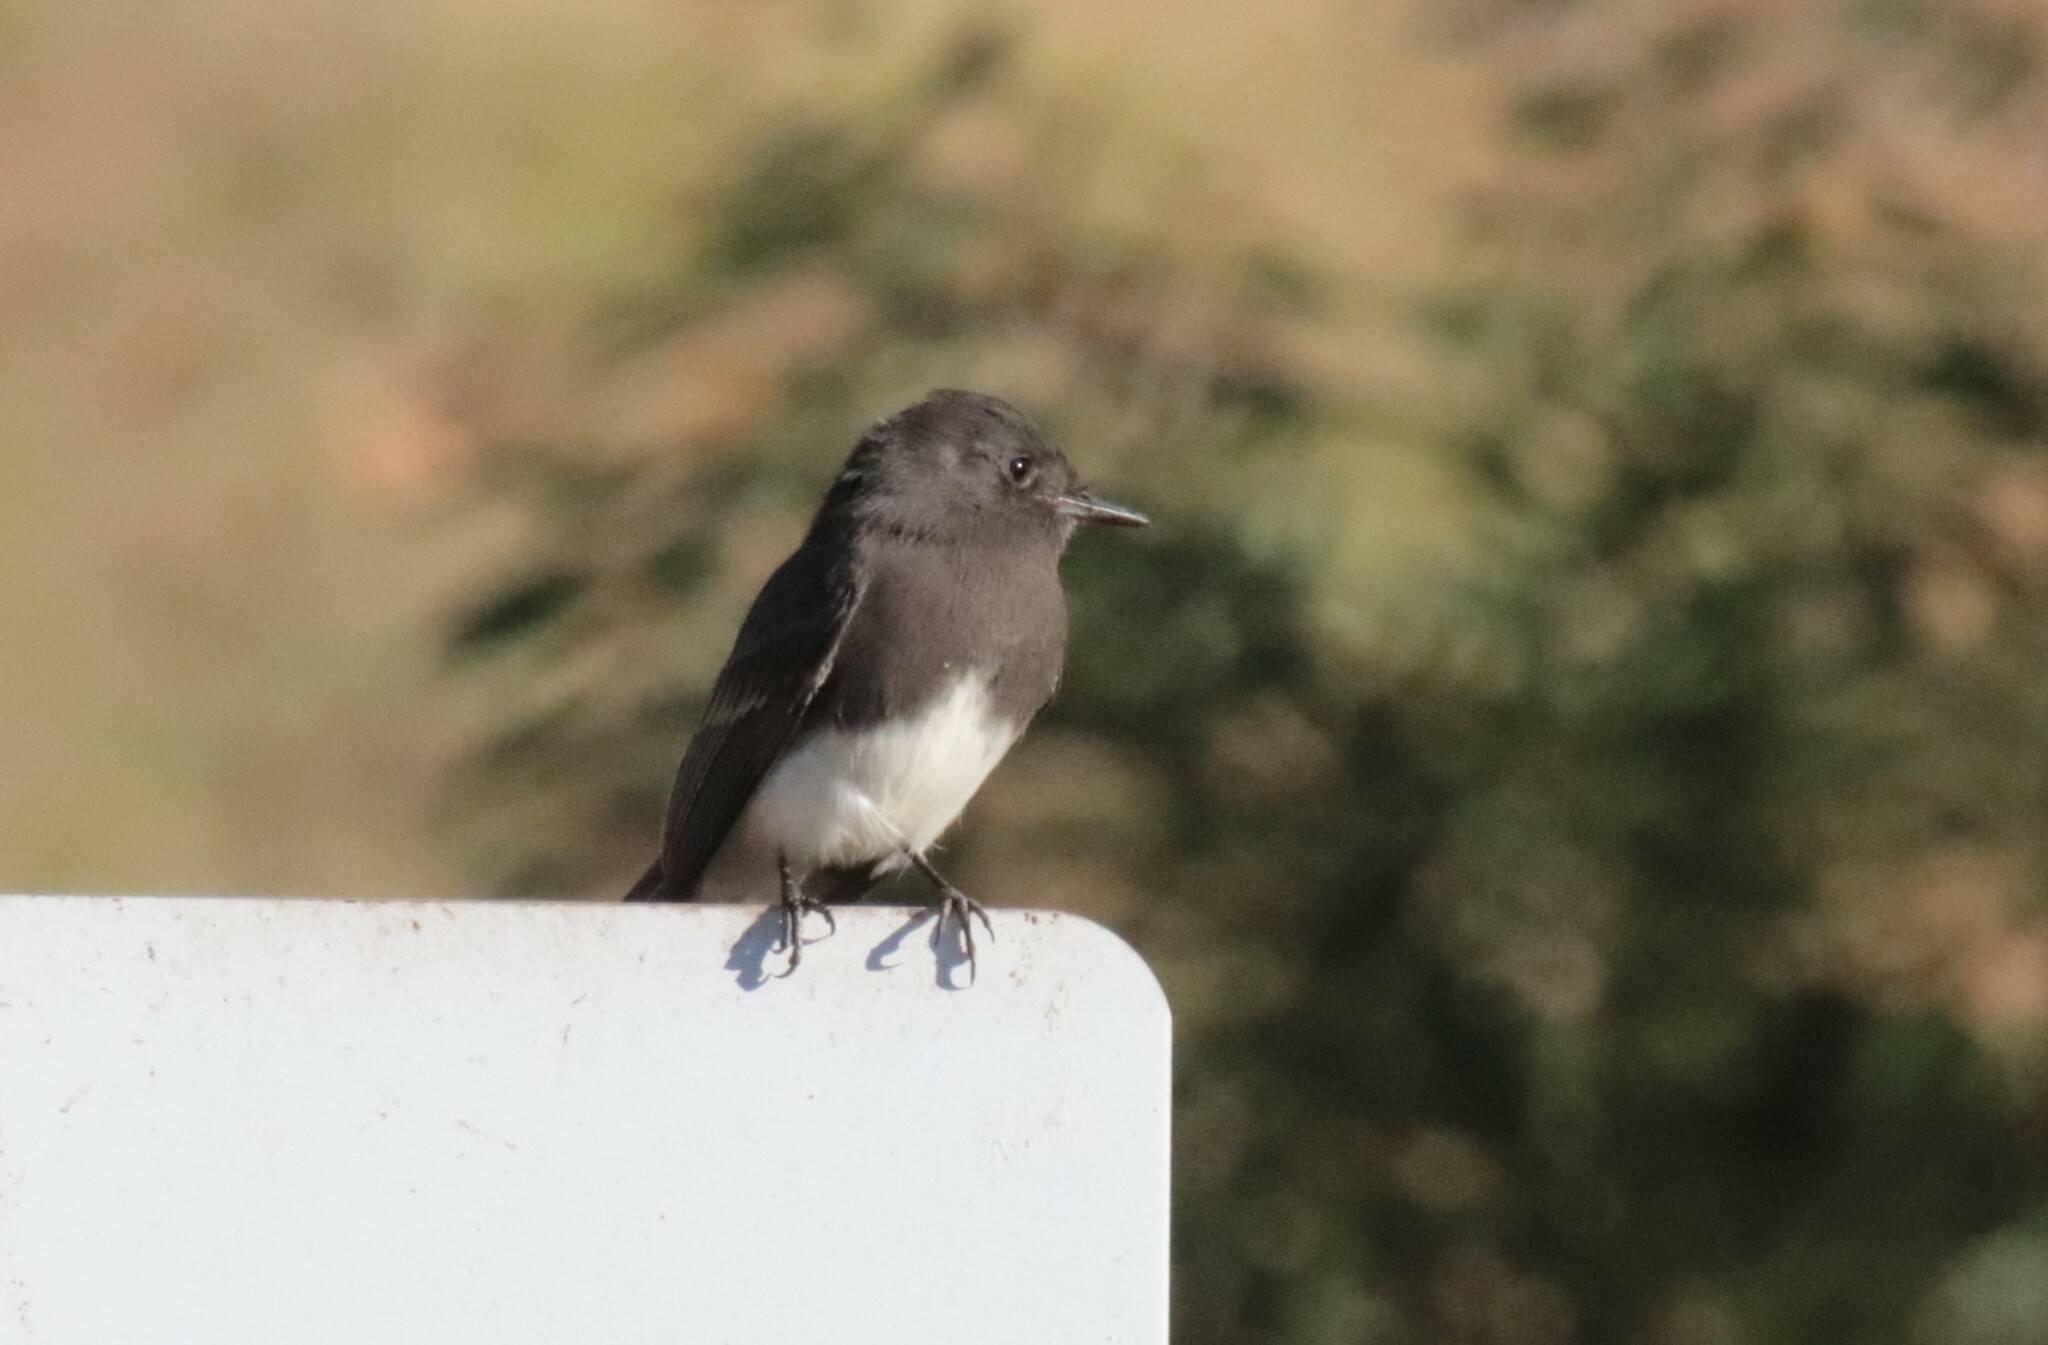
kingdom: Animalia
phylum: Chordata
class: Aves
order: Passeriformes
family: Tyrannidae
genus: Sayornis
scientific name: Sayornis nigricans
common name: Black phoebe
